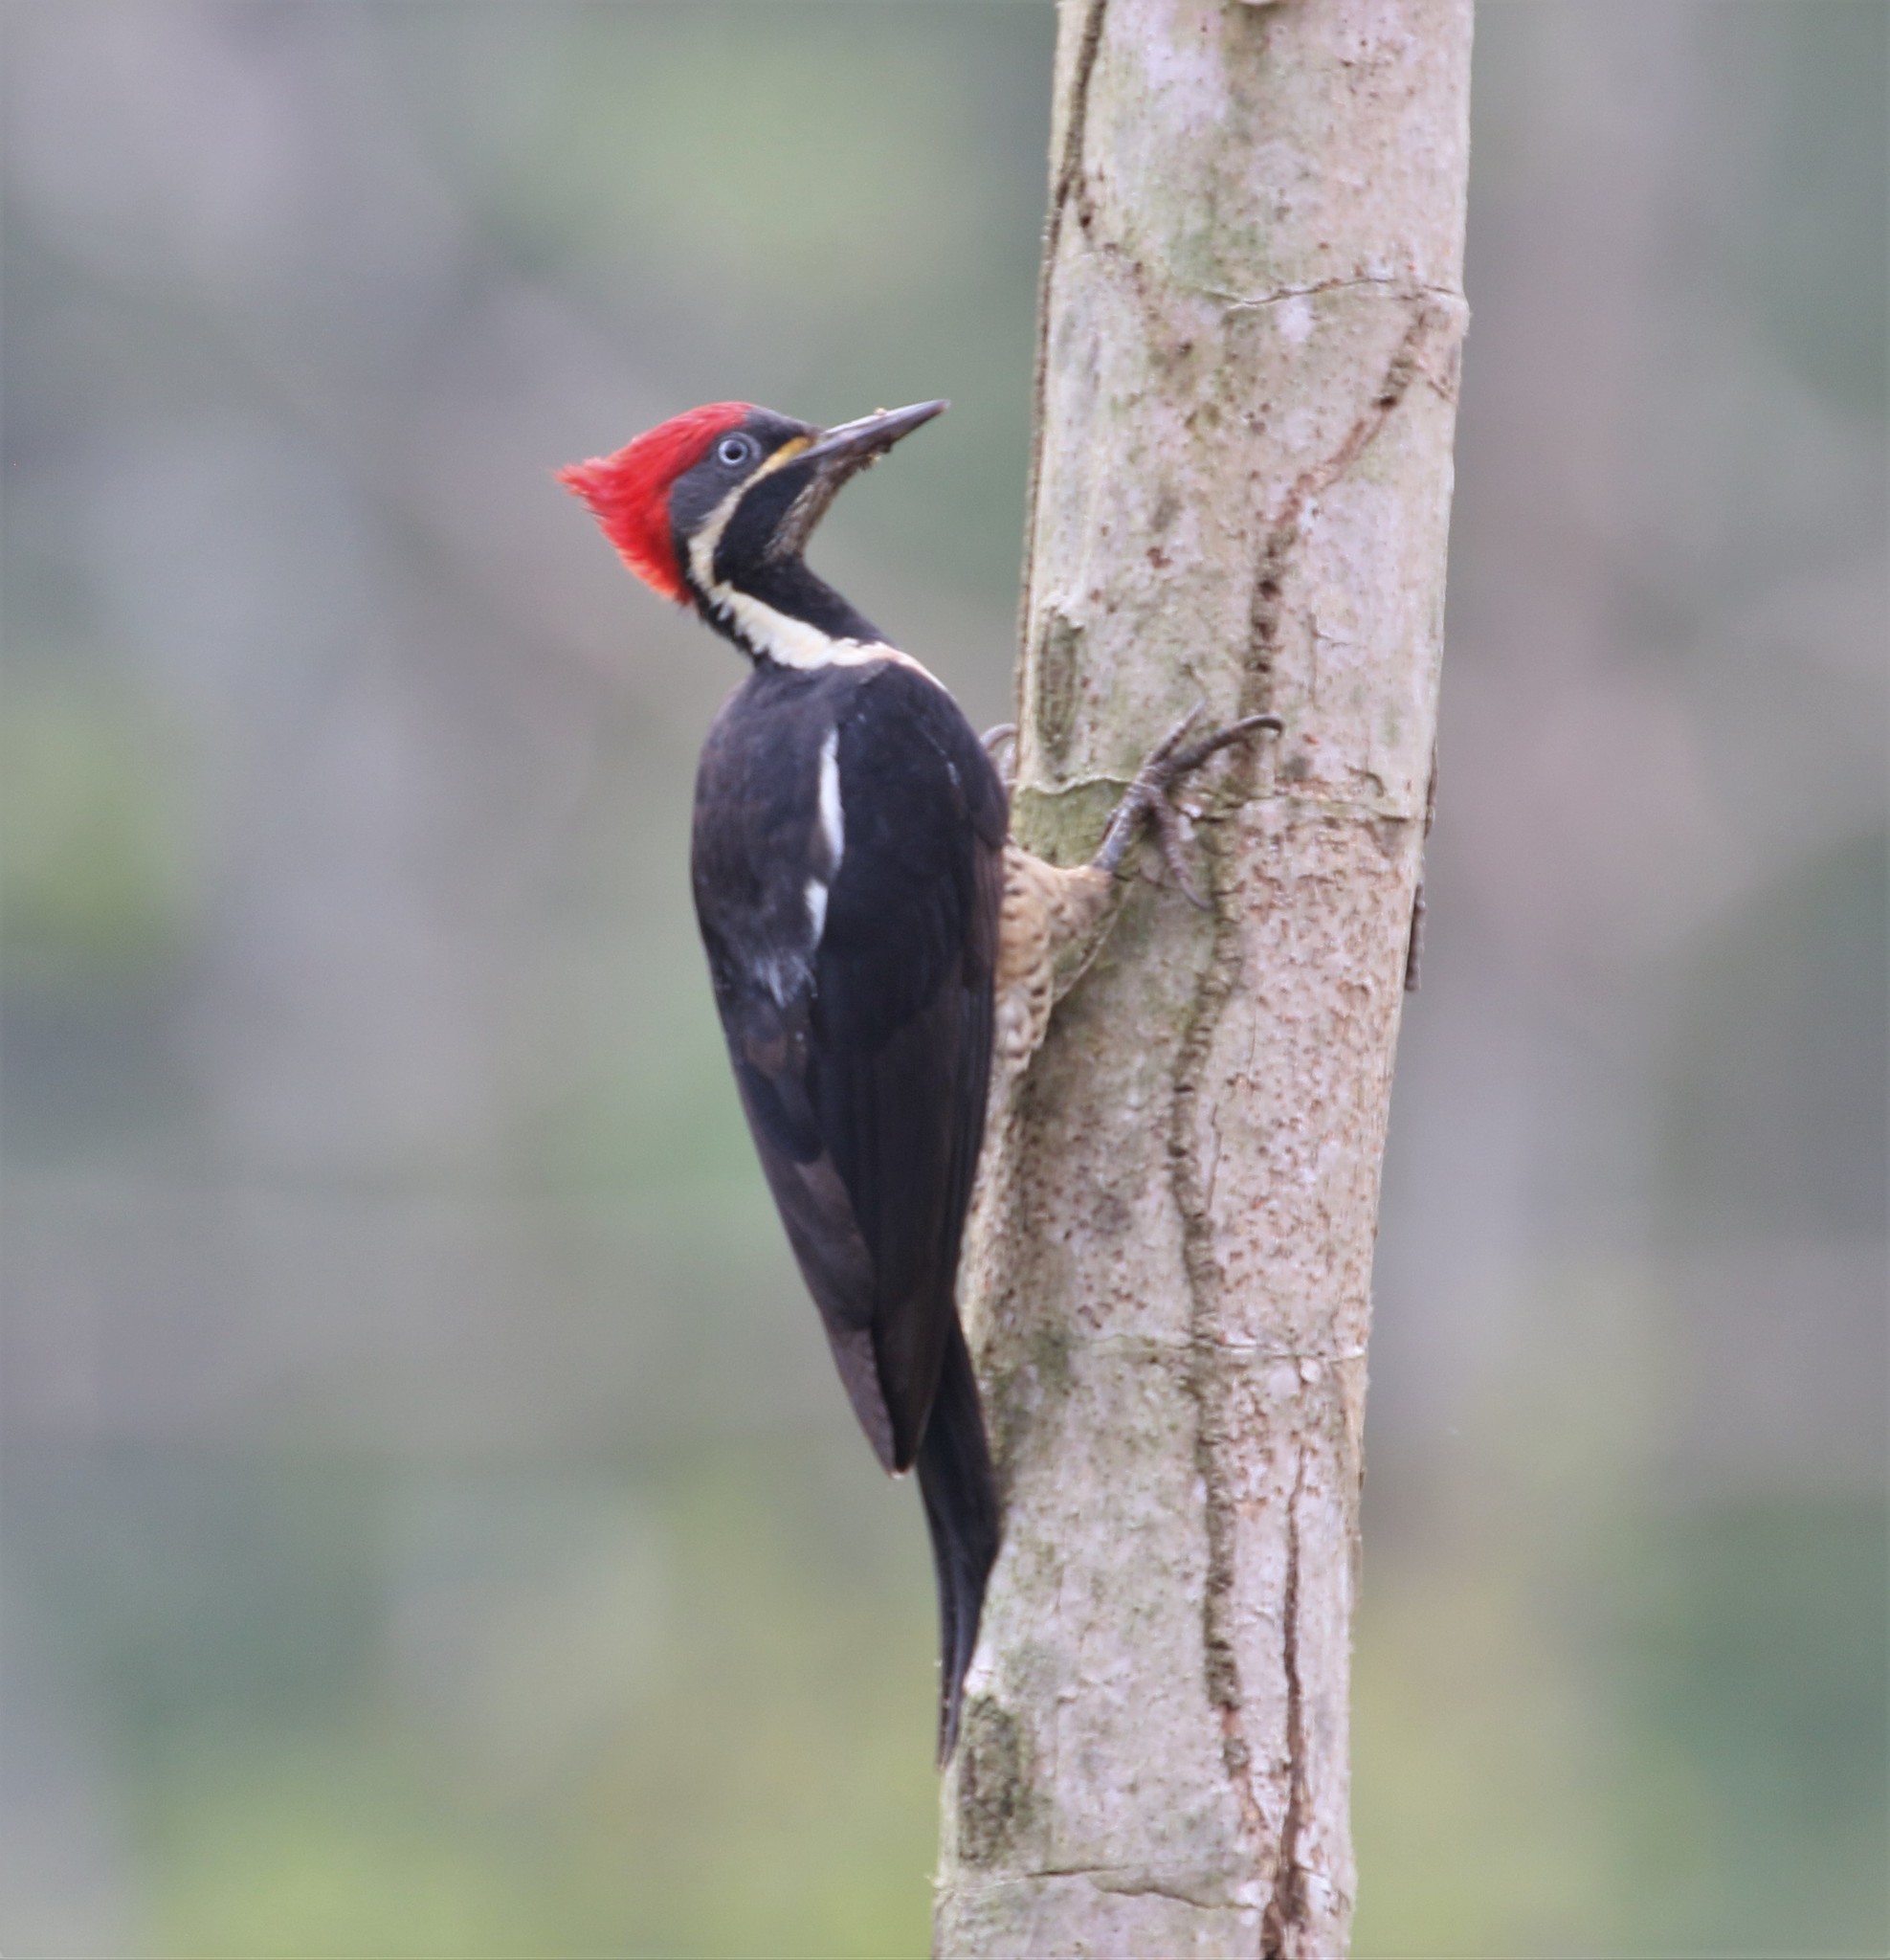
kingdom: Animalia
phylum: Chordata
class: Aves
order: Piciformes
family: Picidae
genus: Dryocopus
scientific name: Dryocopus lineatus
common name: Lineated woodpecker
